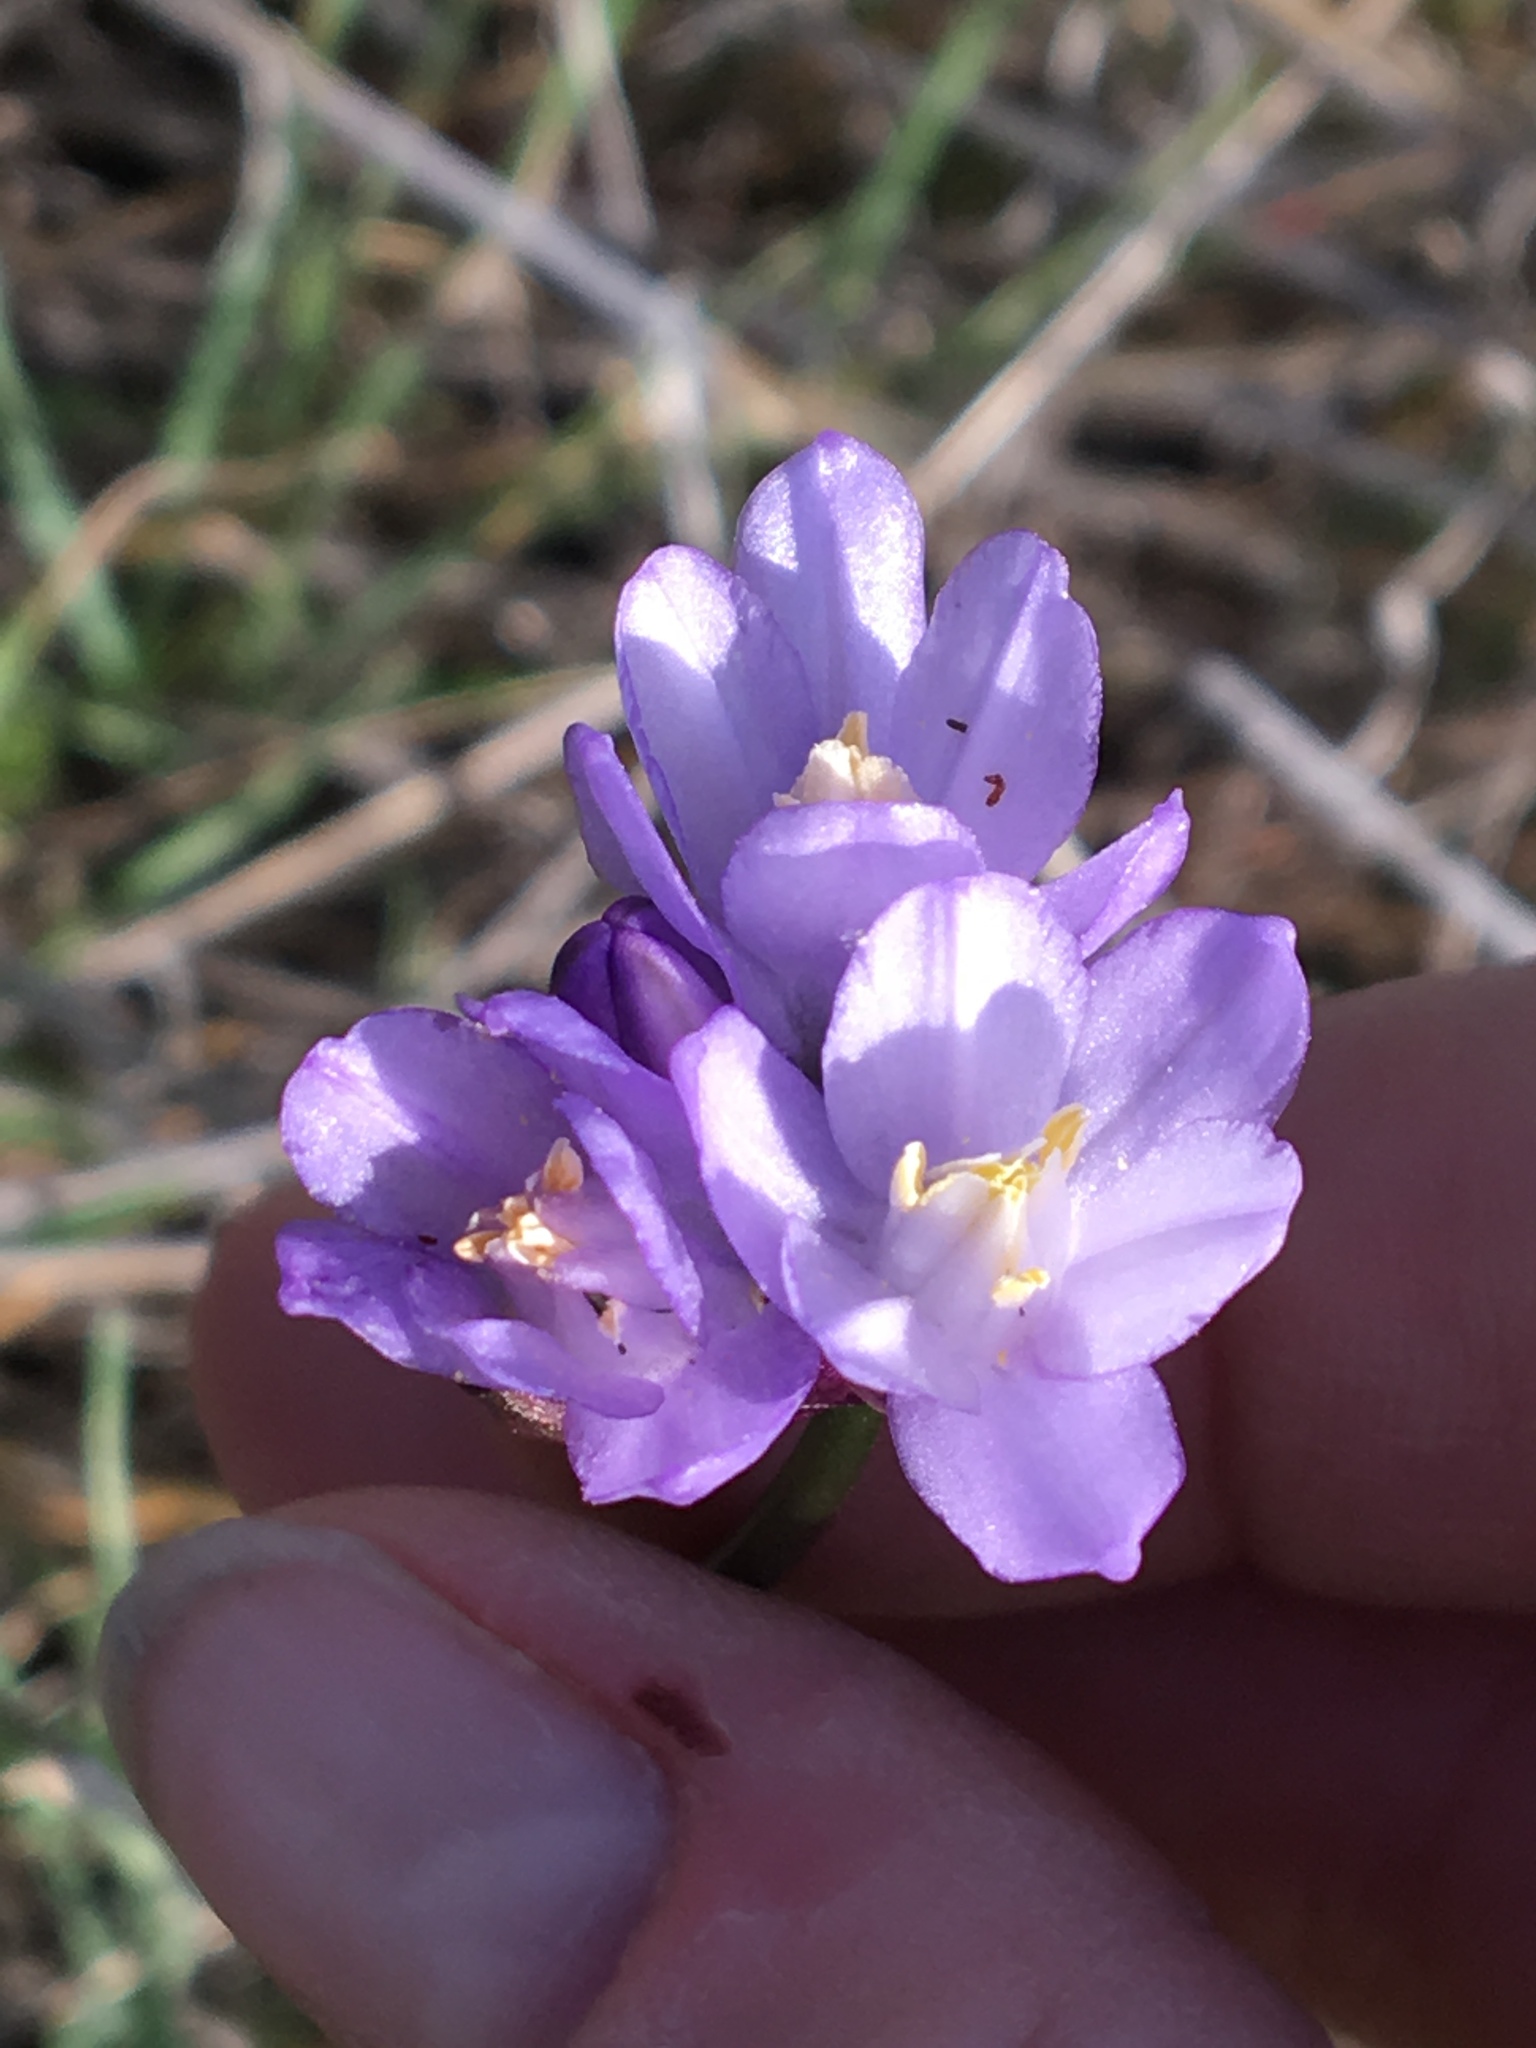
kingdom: Plantae
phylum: Tracheophyta
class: Liliopsida
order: Asparagales
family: Asparagaceae
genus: Dipterostemon
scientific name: Dipterostemon capitatus
